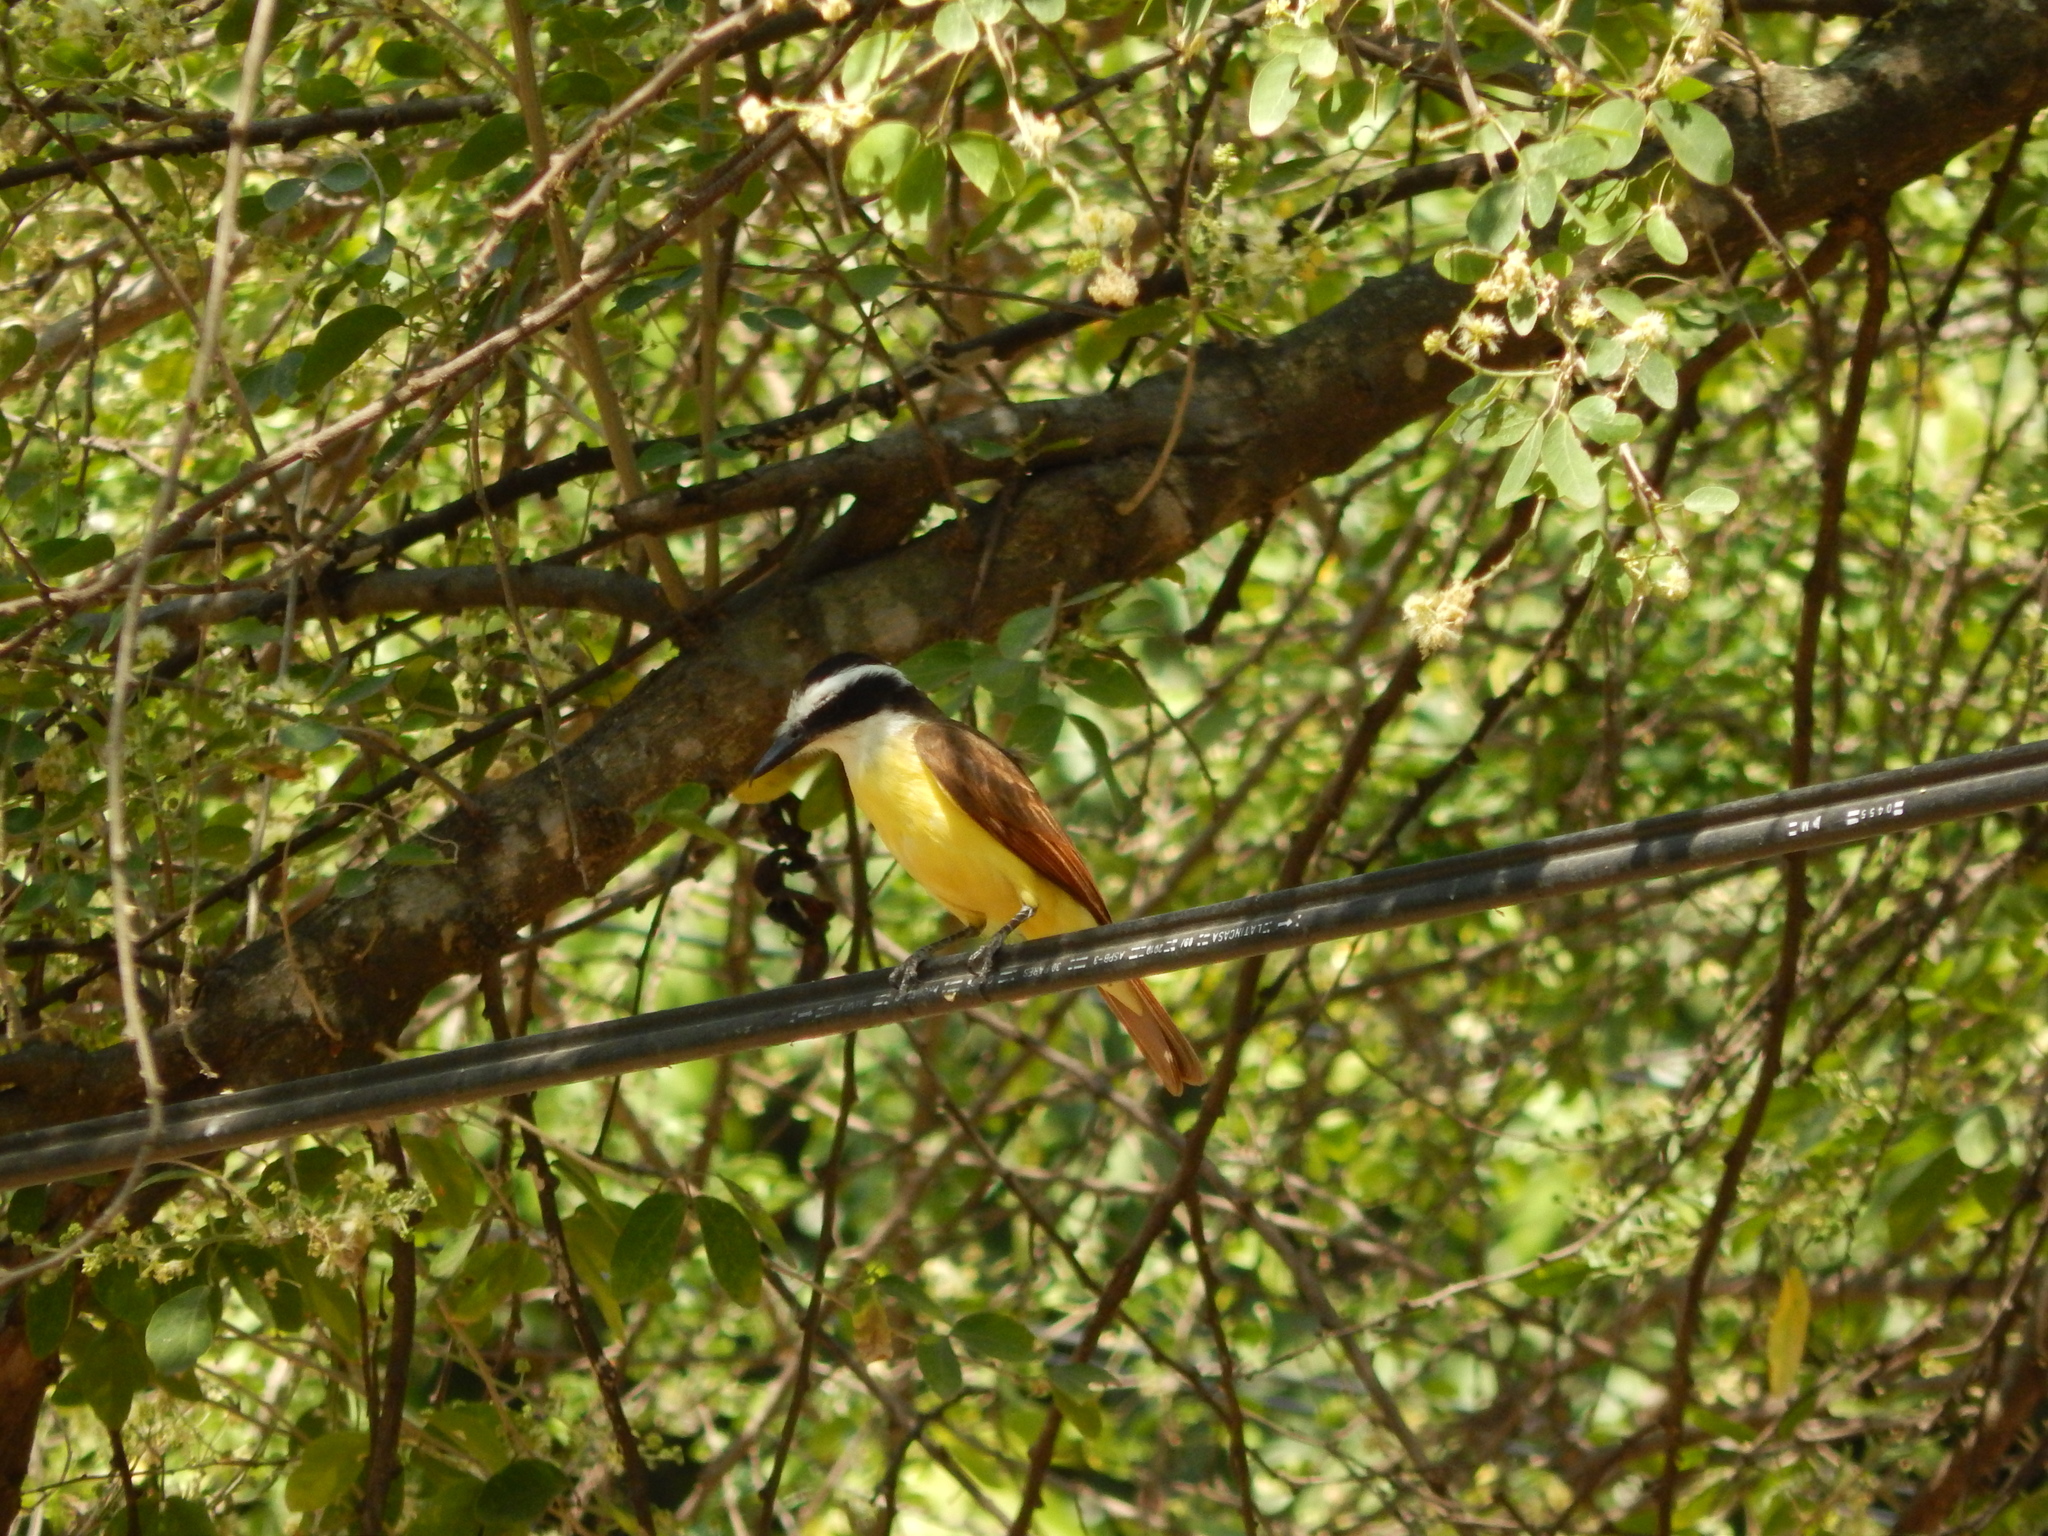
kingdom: Animalia
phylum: Chordata
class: Aves
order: Passeriformes
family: Tyrannidae
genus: Pitangus
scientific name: Pitangus sulphuratus
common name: Great kiskadee
